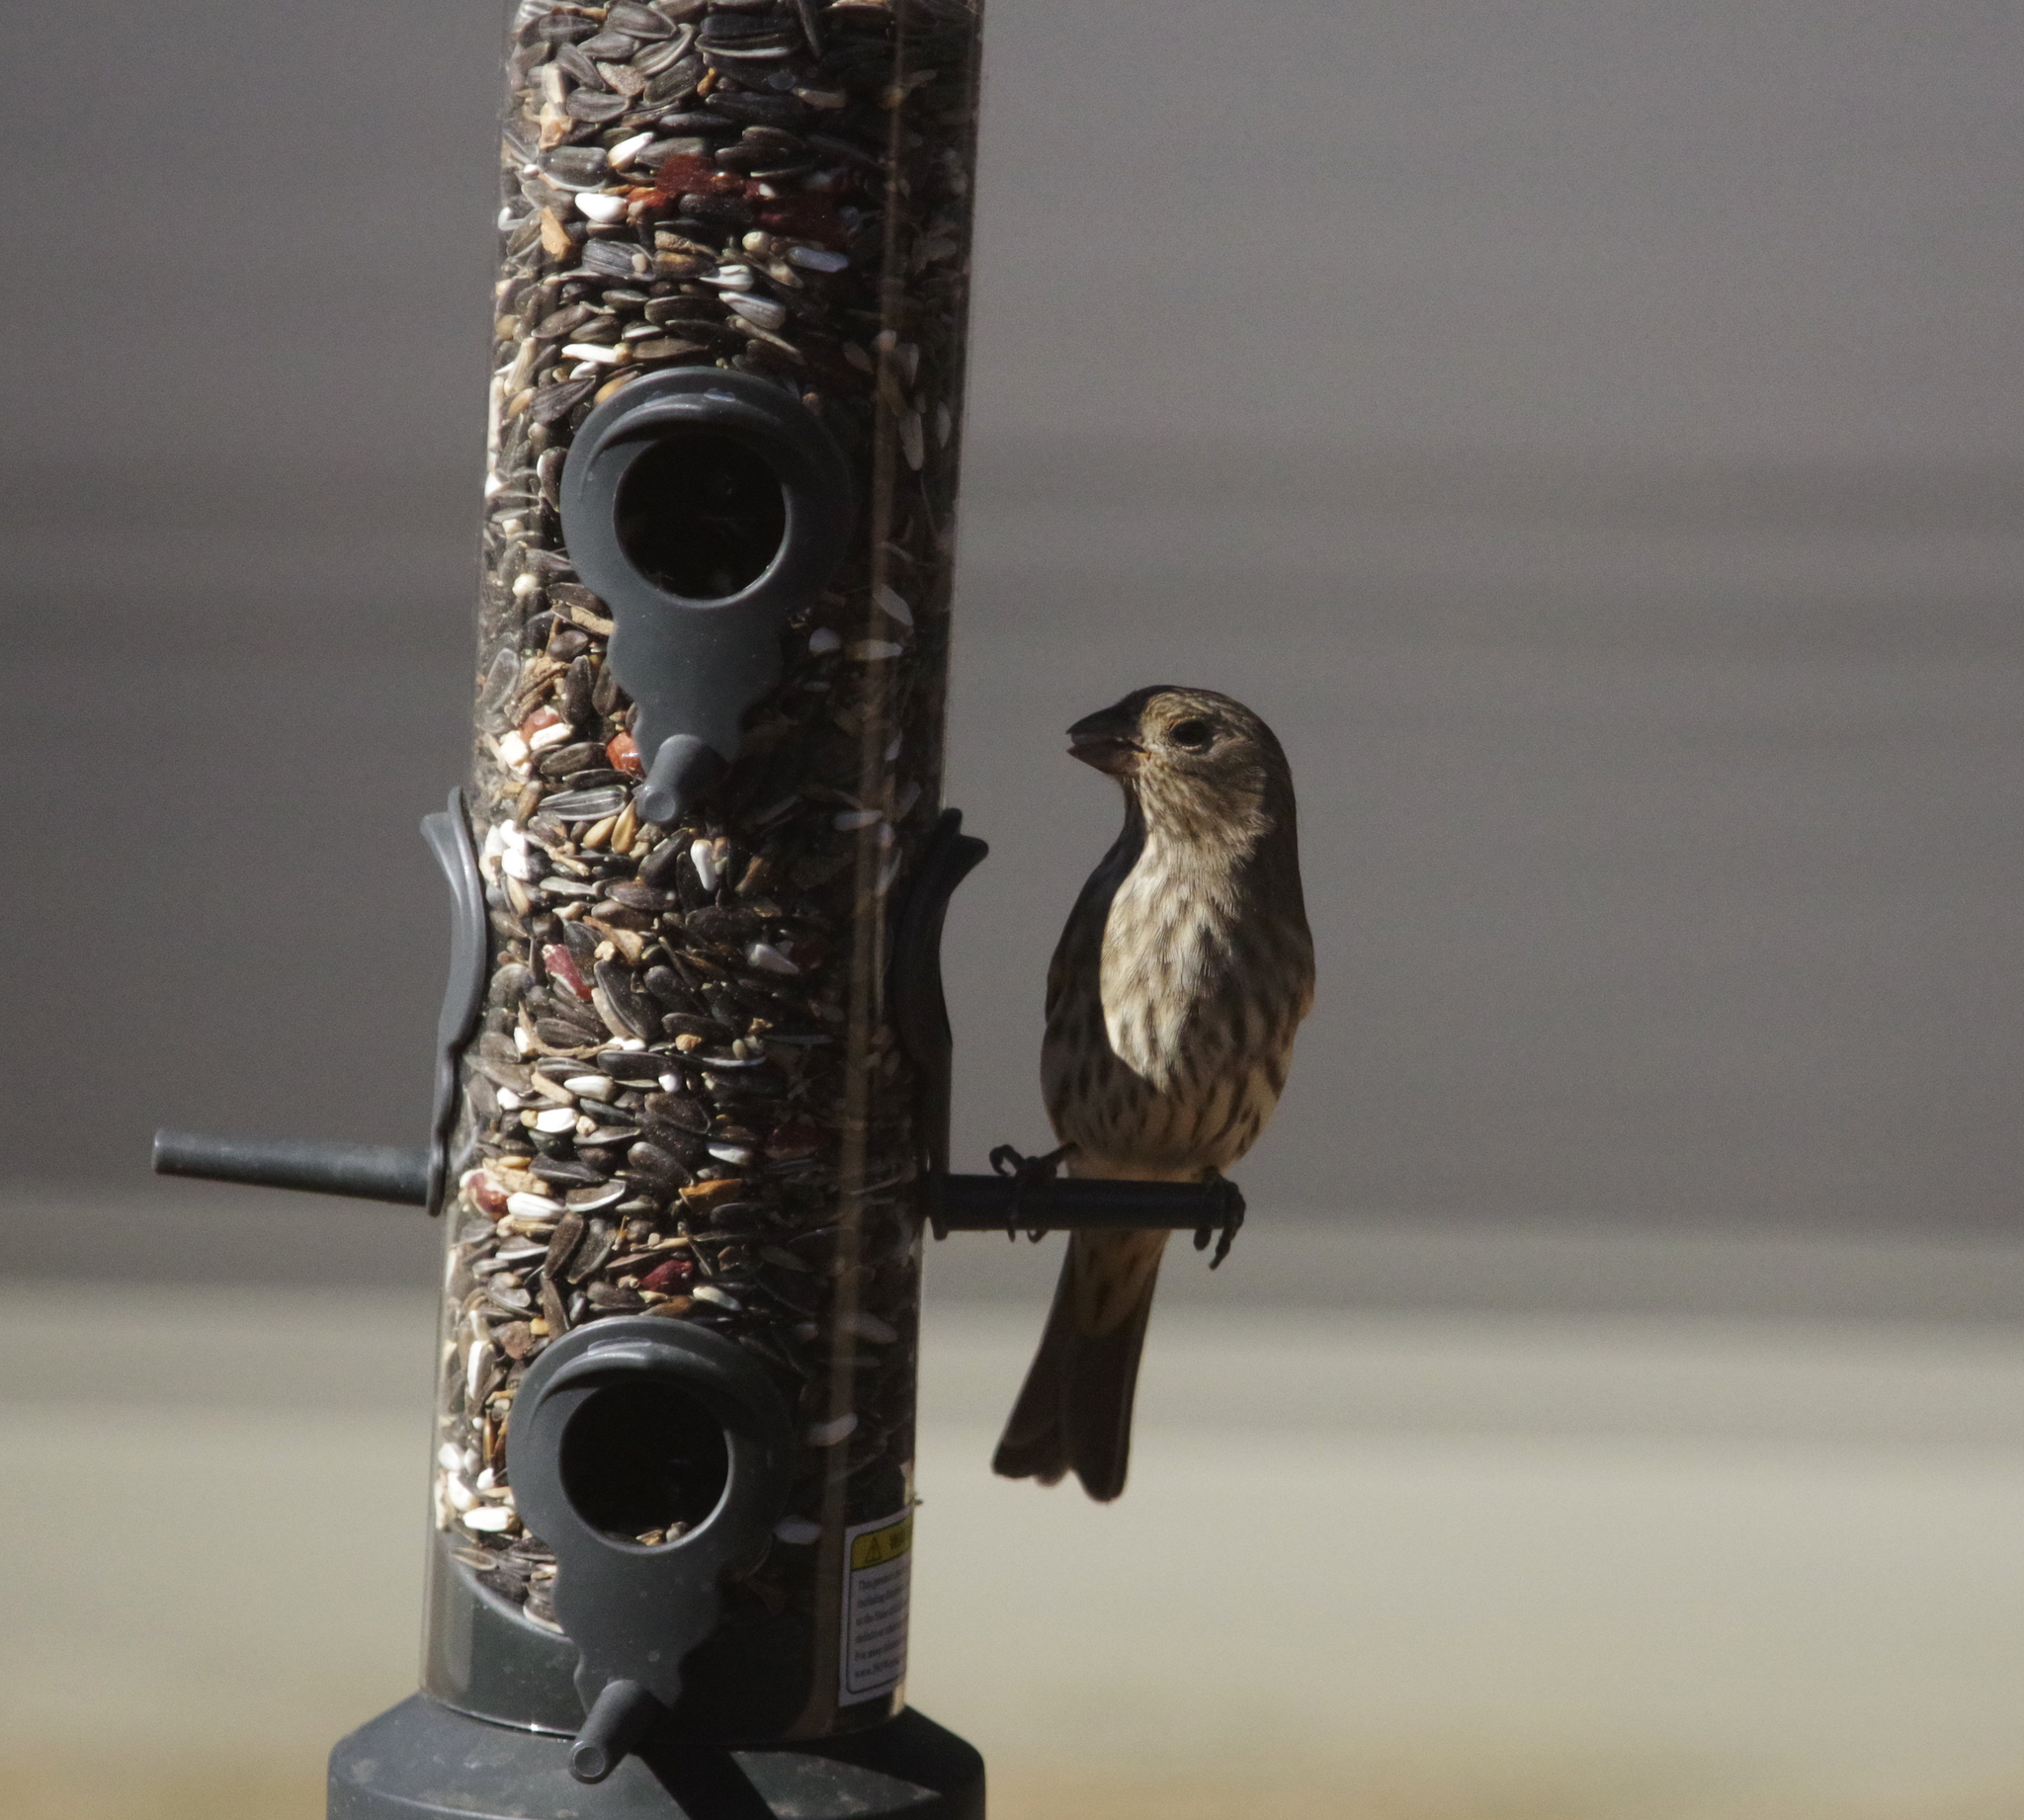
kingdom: Animalia
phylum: Chordata
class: Aves
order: Passeriformes
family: Fringillidae
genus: Haemorhous
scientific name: Haemorhous mexicanus
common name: House finch
